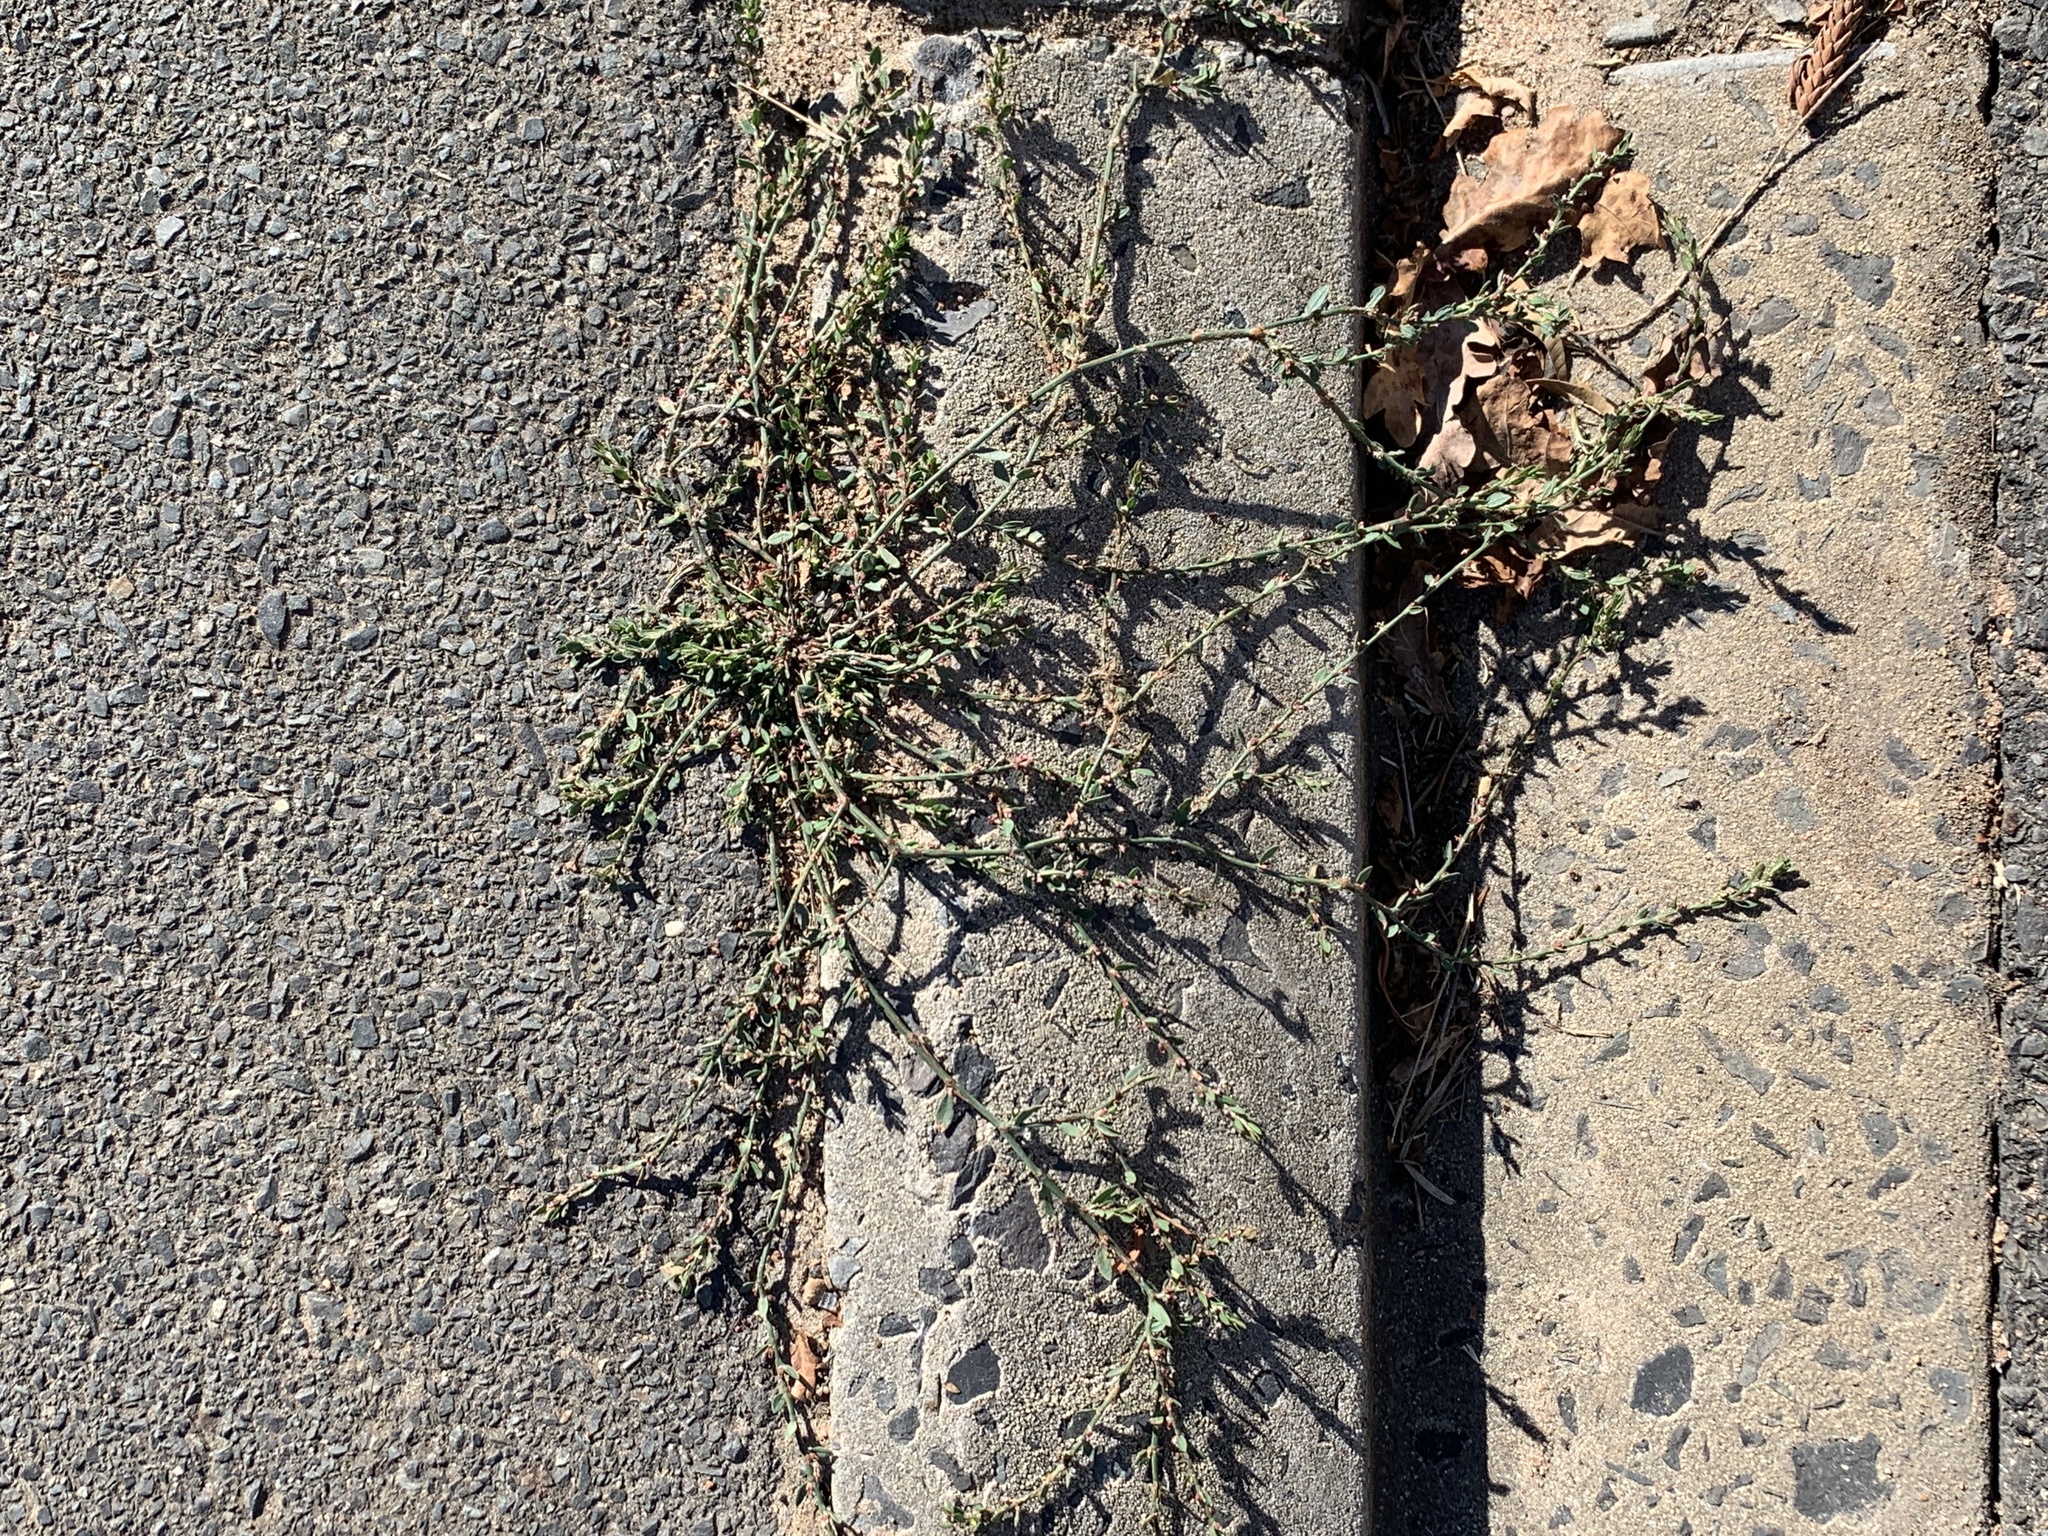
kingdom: Plantae
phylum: Tracheophyta
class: Magnoliopsida
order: Caryophyllales
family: Polygonaceae
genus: Polygonum
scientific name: Polygonum aviculare
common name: Prostrate knotweed
